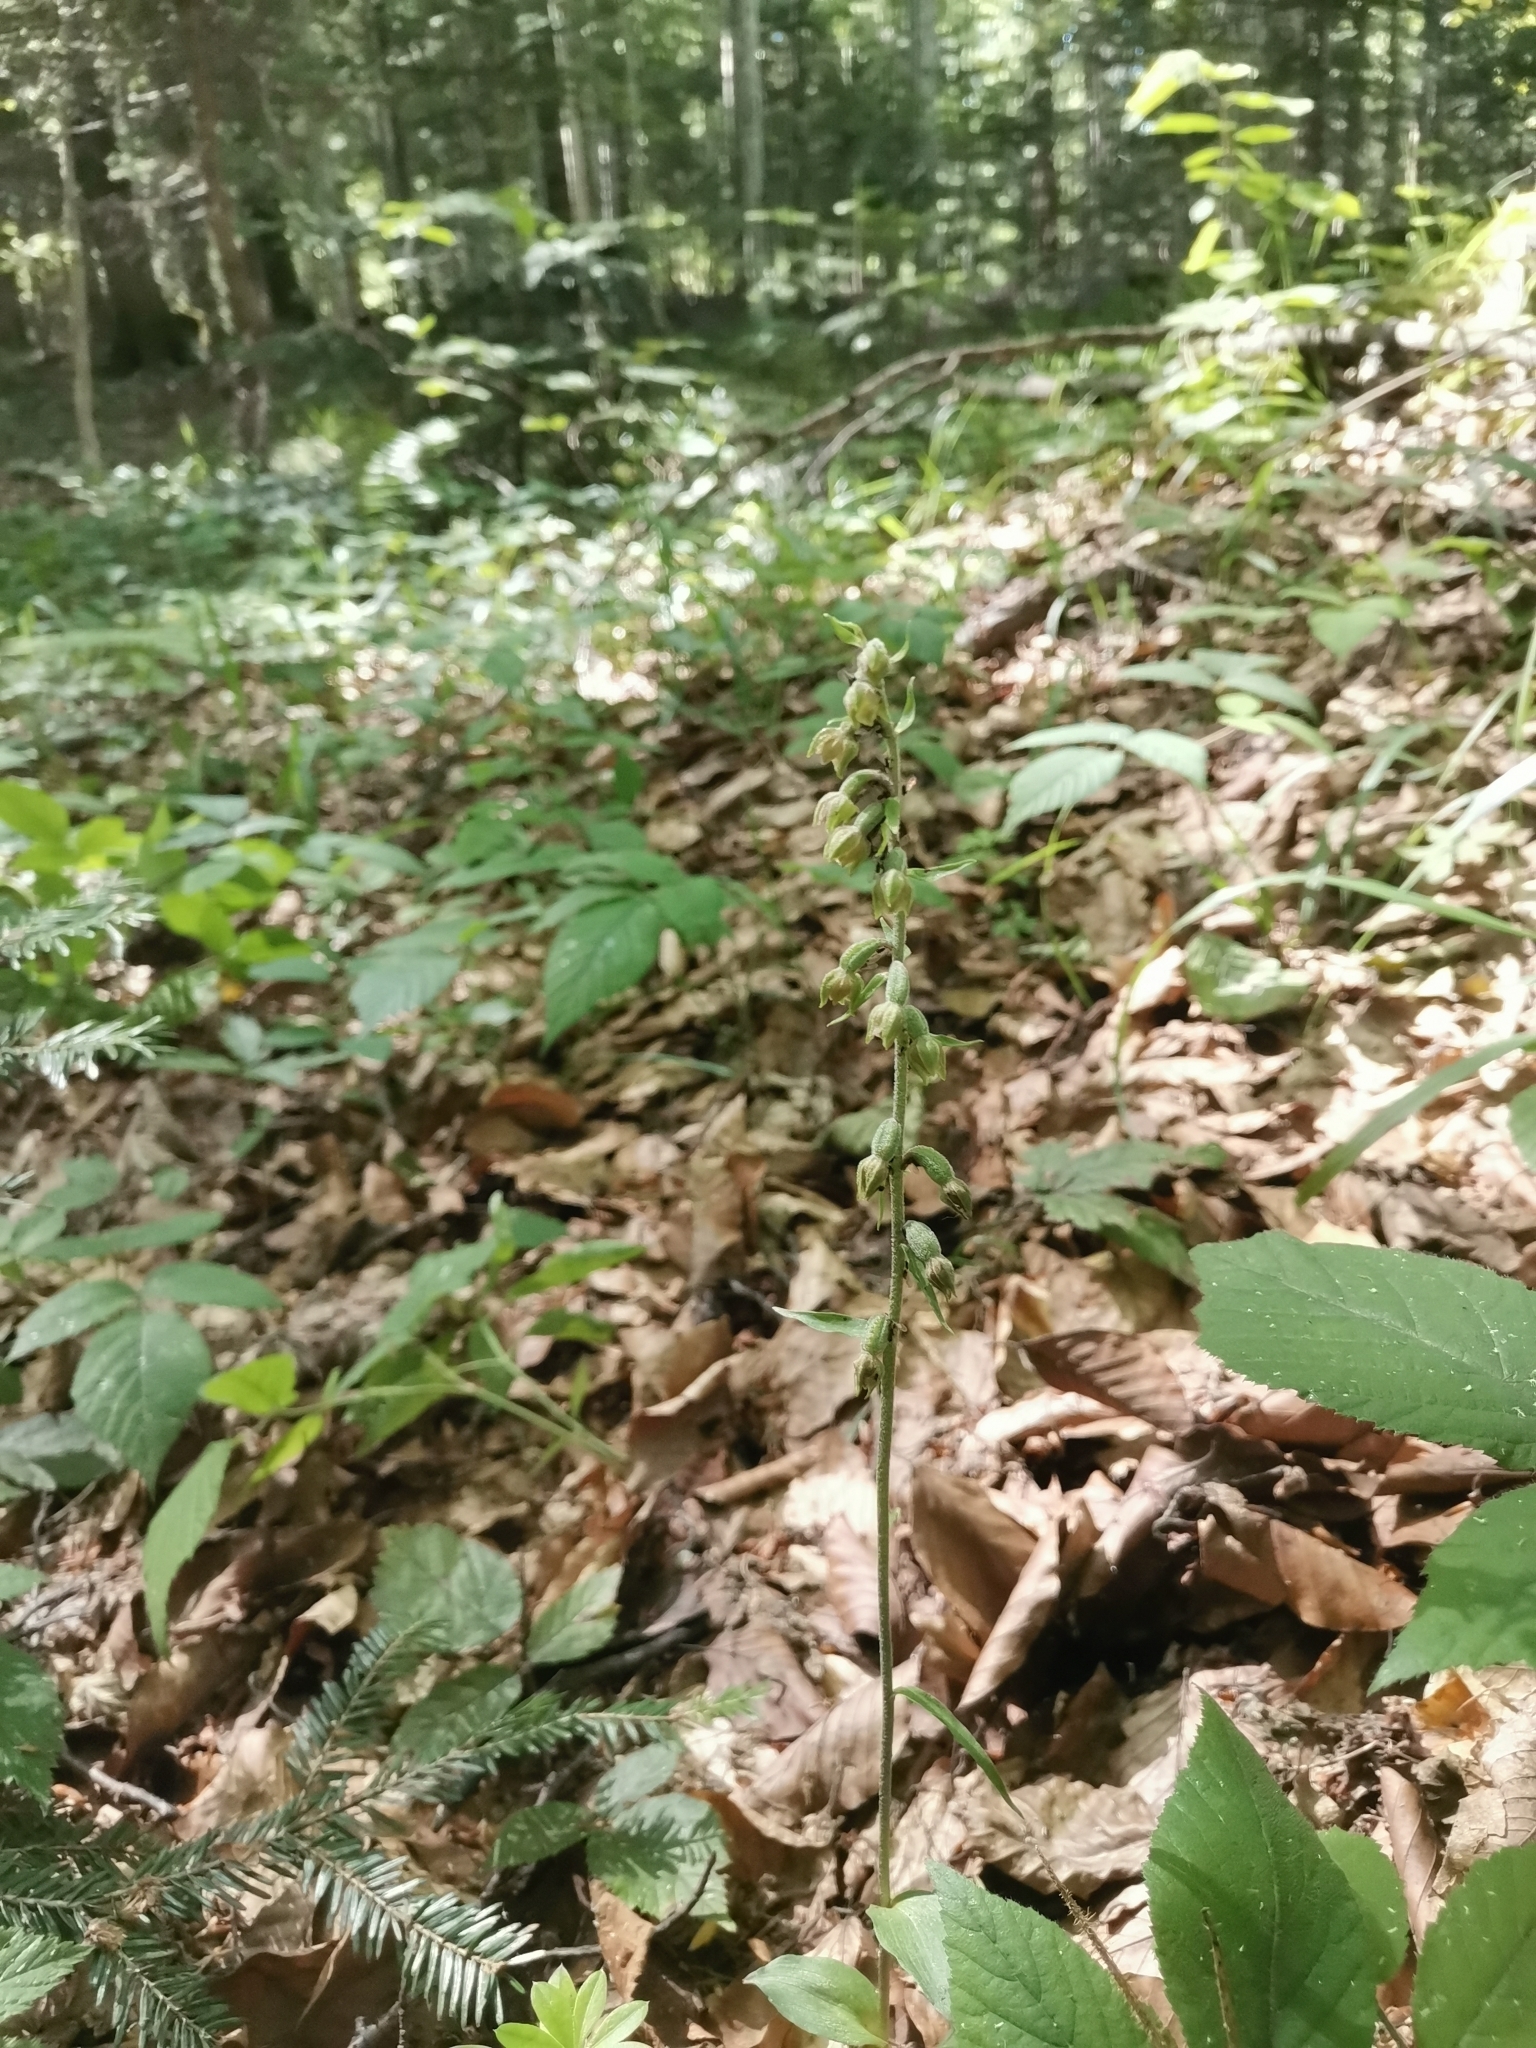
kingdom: Plantae
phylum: Tracheophyta
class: Liliopsida
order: Asparagales
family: Orchidaceae
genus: Epipactis
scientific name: Epipactis microphylla
